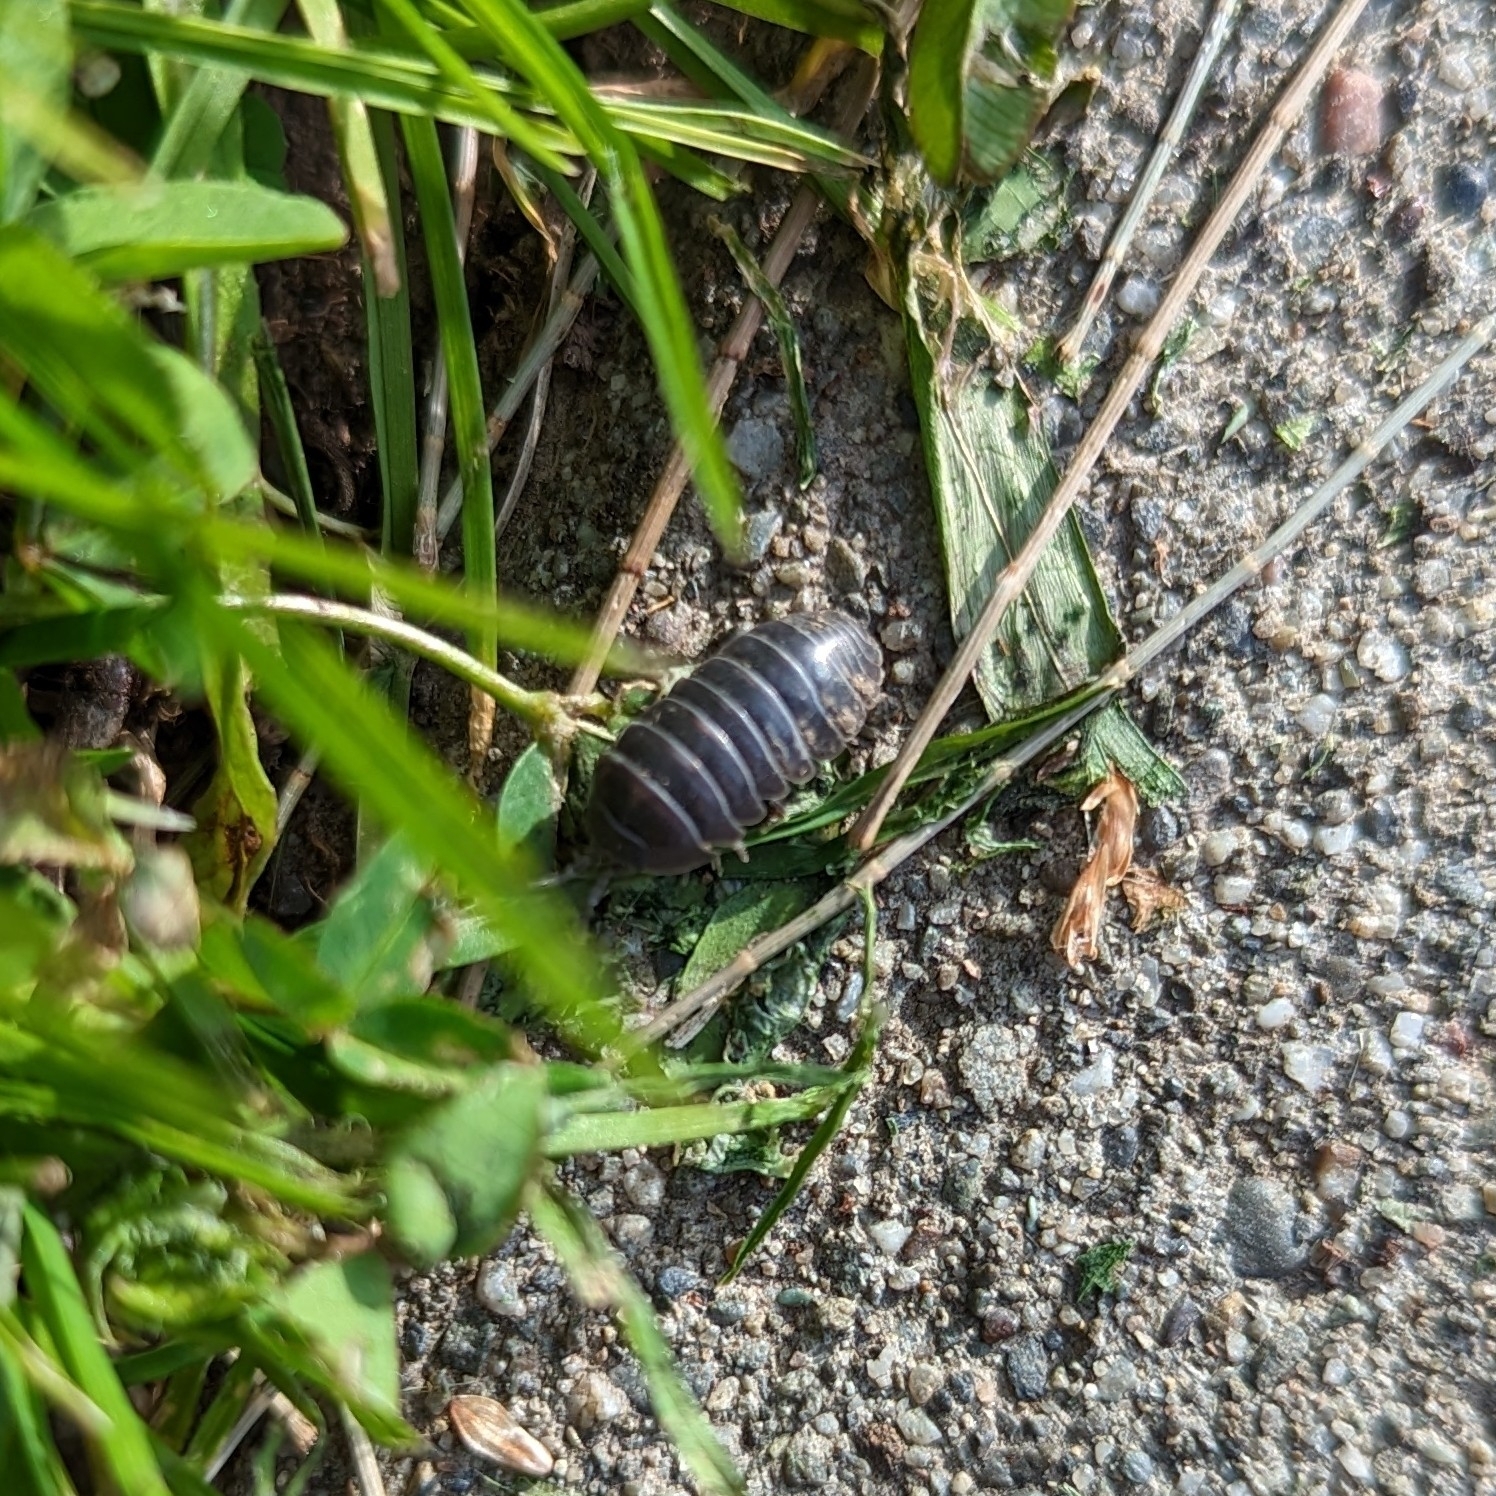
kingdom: Animalia
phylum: Arthropoda
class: Malacostraca
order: Isopoda
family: Armadillidiidae
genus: Armadillidium
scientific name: Armadillidium vulgare
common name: Common pill woodlouse
